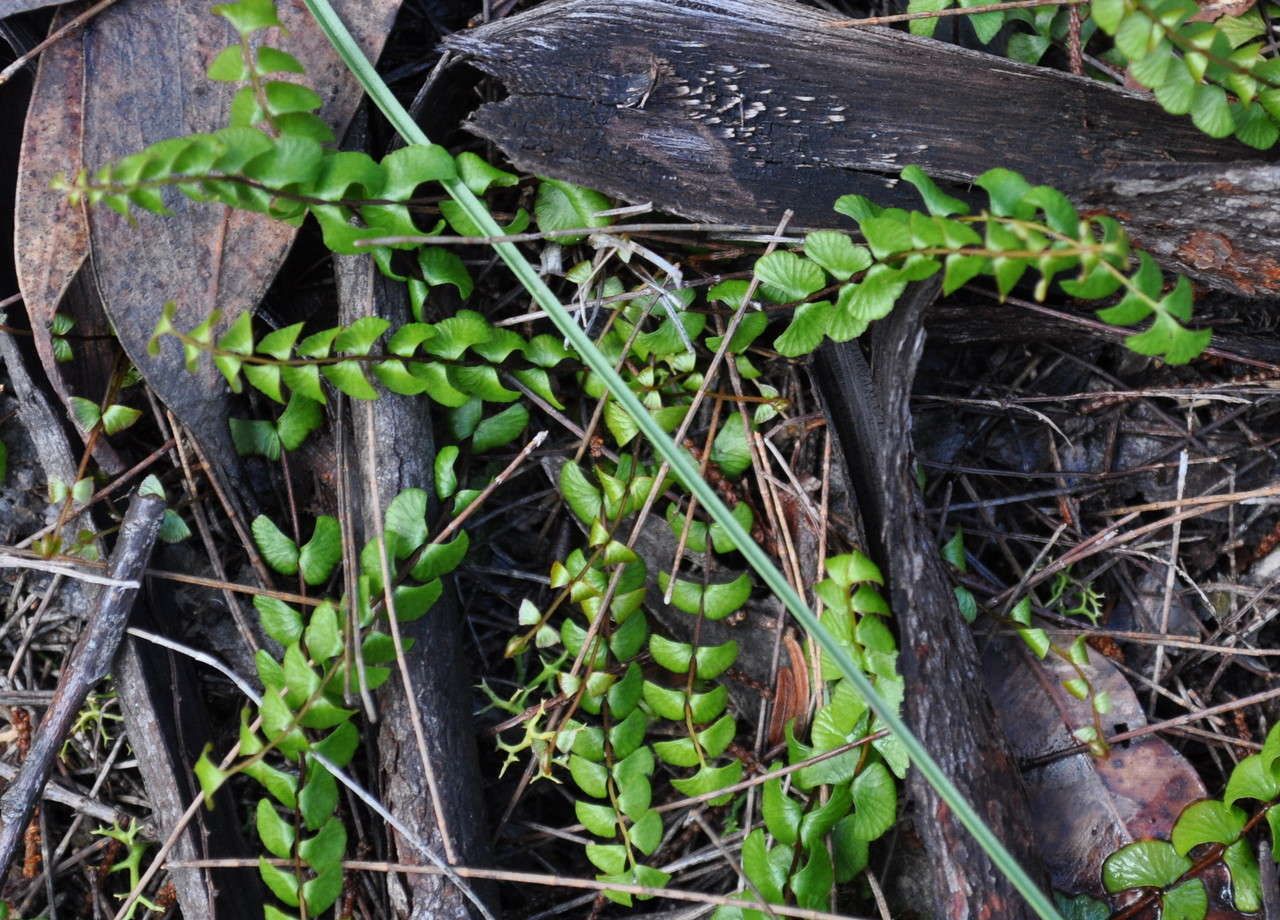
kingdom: Plantae
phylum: Tracheophyta
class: Polypodiopsida
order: Polypodiales
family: Lindsaeaceae
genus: Lindsaea
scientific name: Lindsaea linearis
